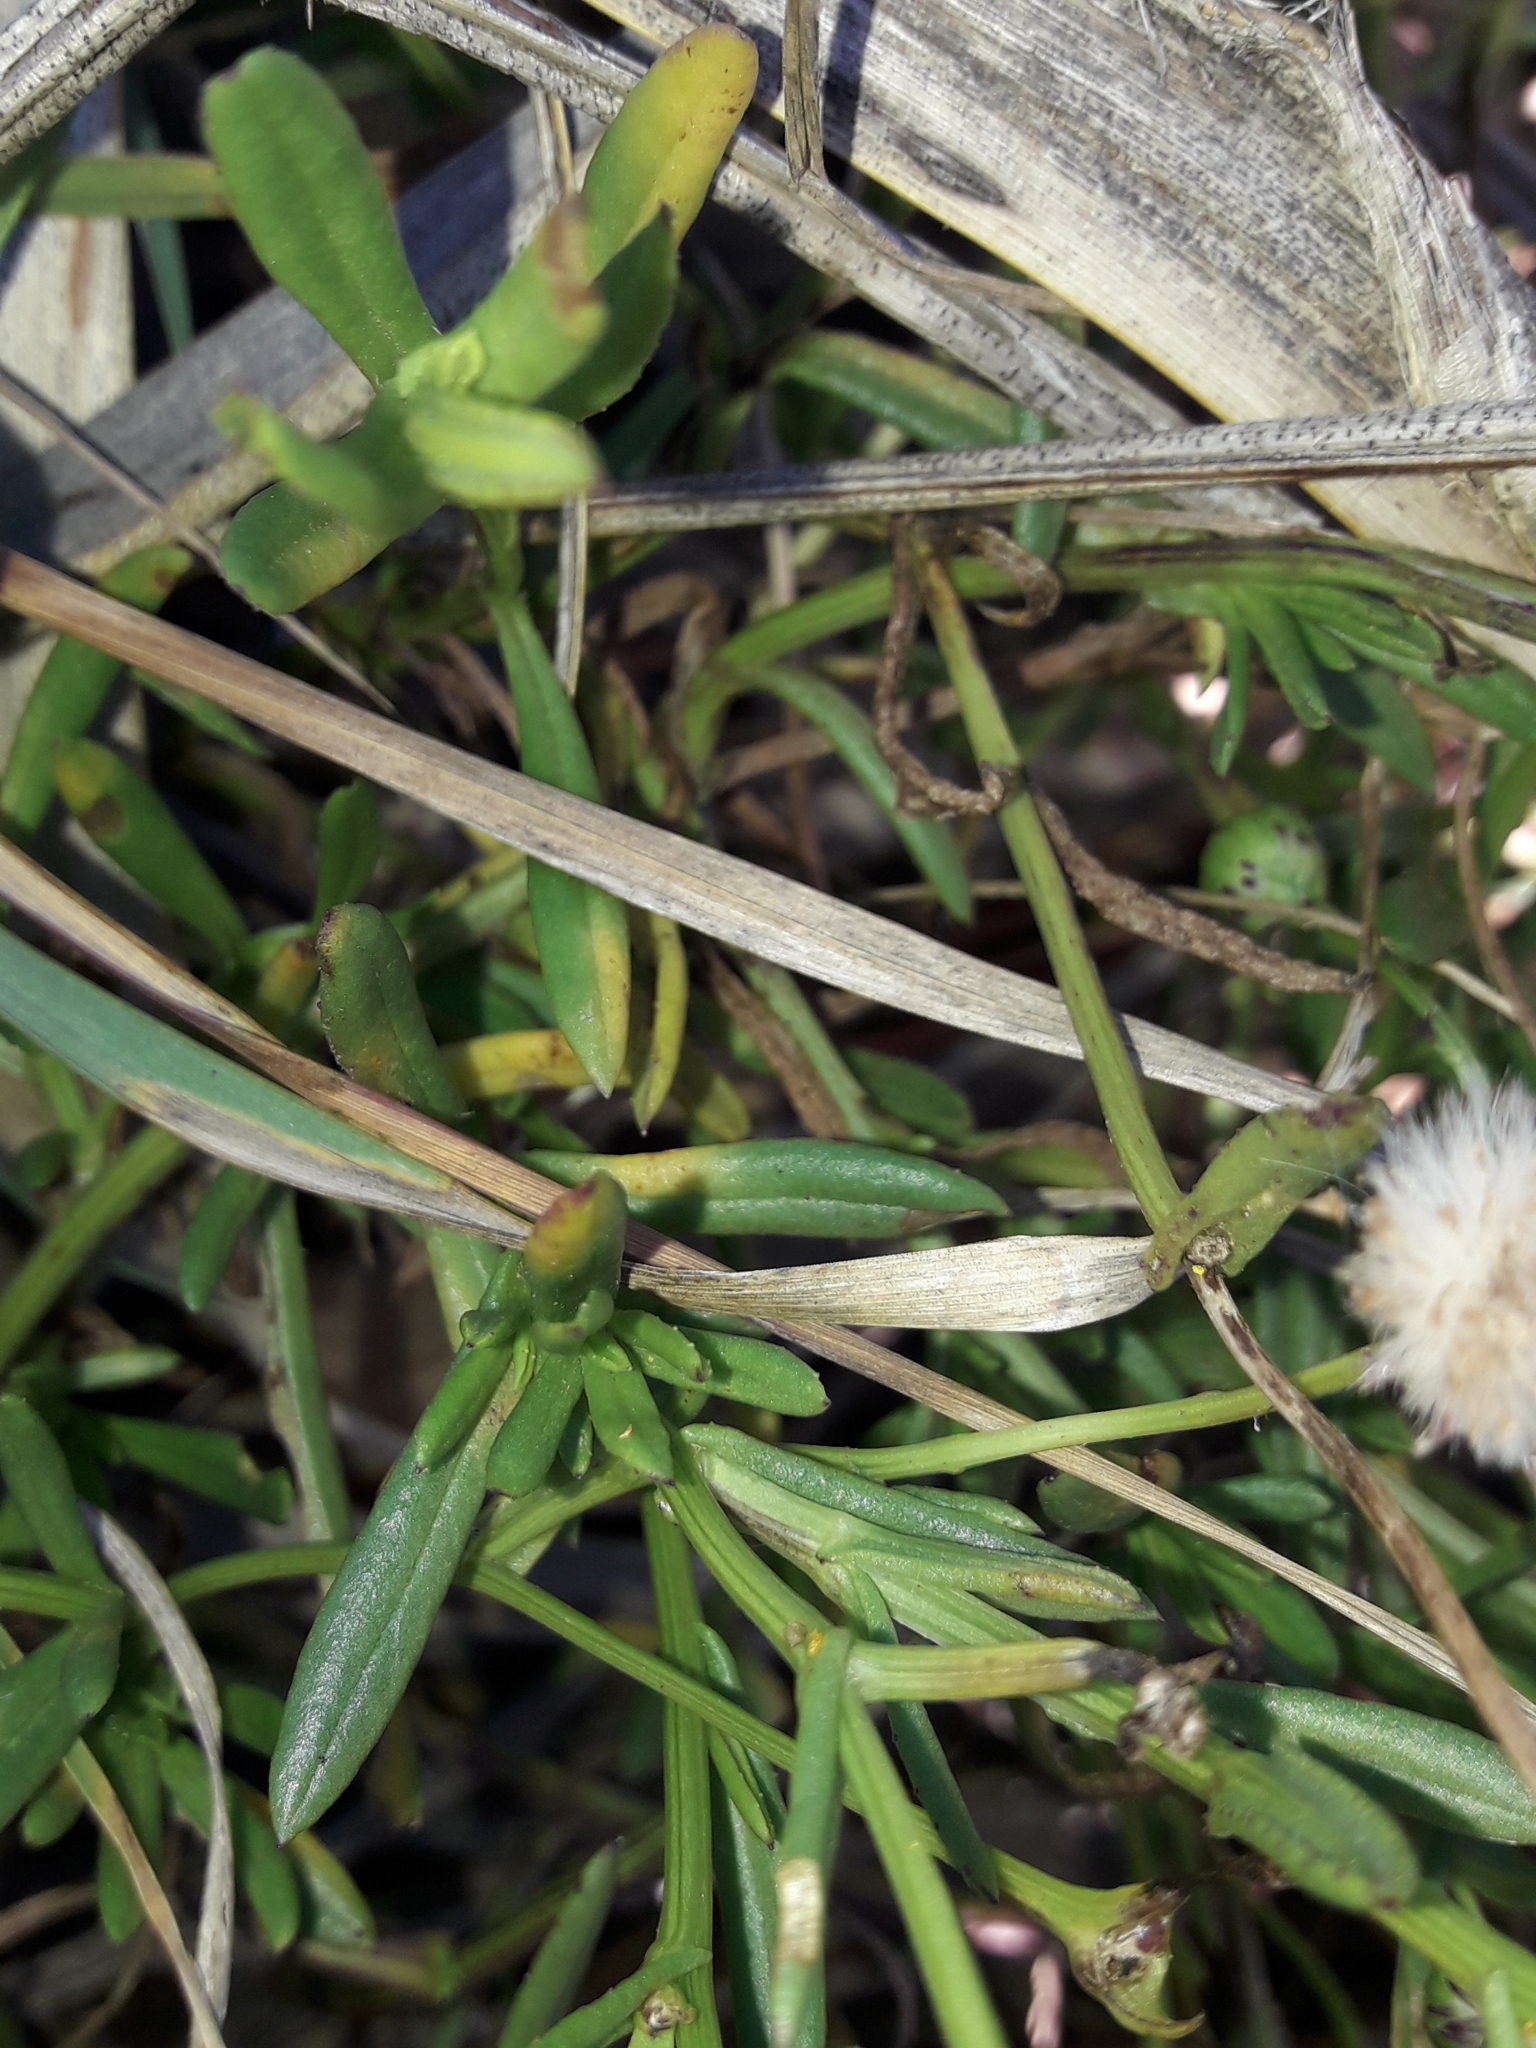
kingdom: Plantae
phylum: Tracheophyta
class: Magnoliopsida
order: Asterales
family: Asteraceae
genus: Senecio
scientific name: Senecio skirrhodon
